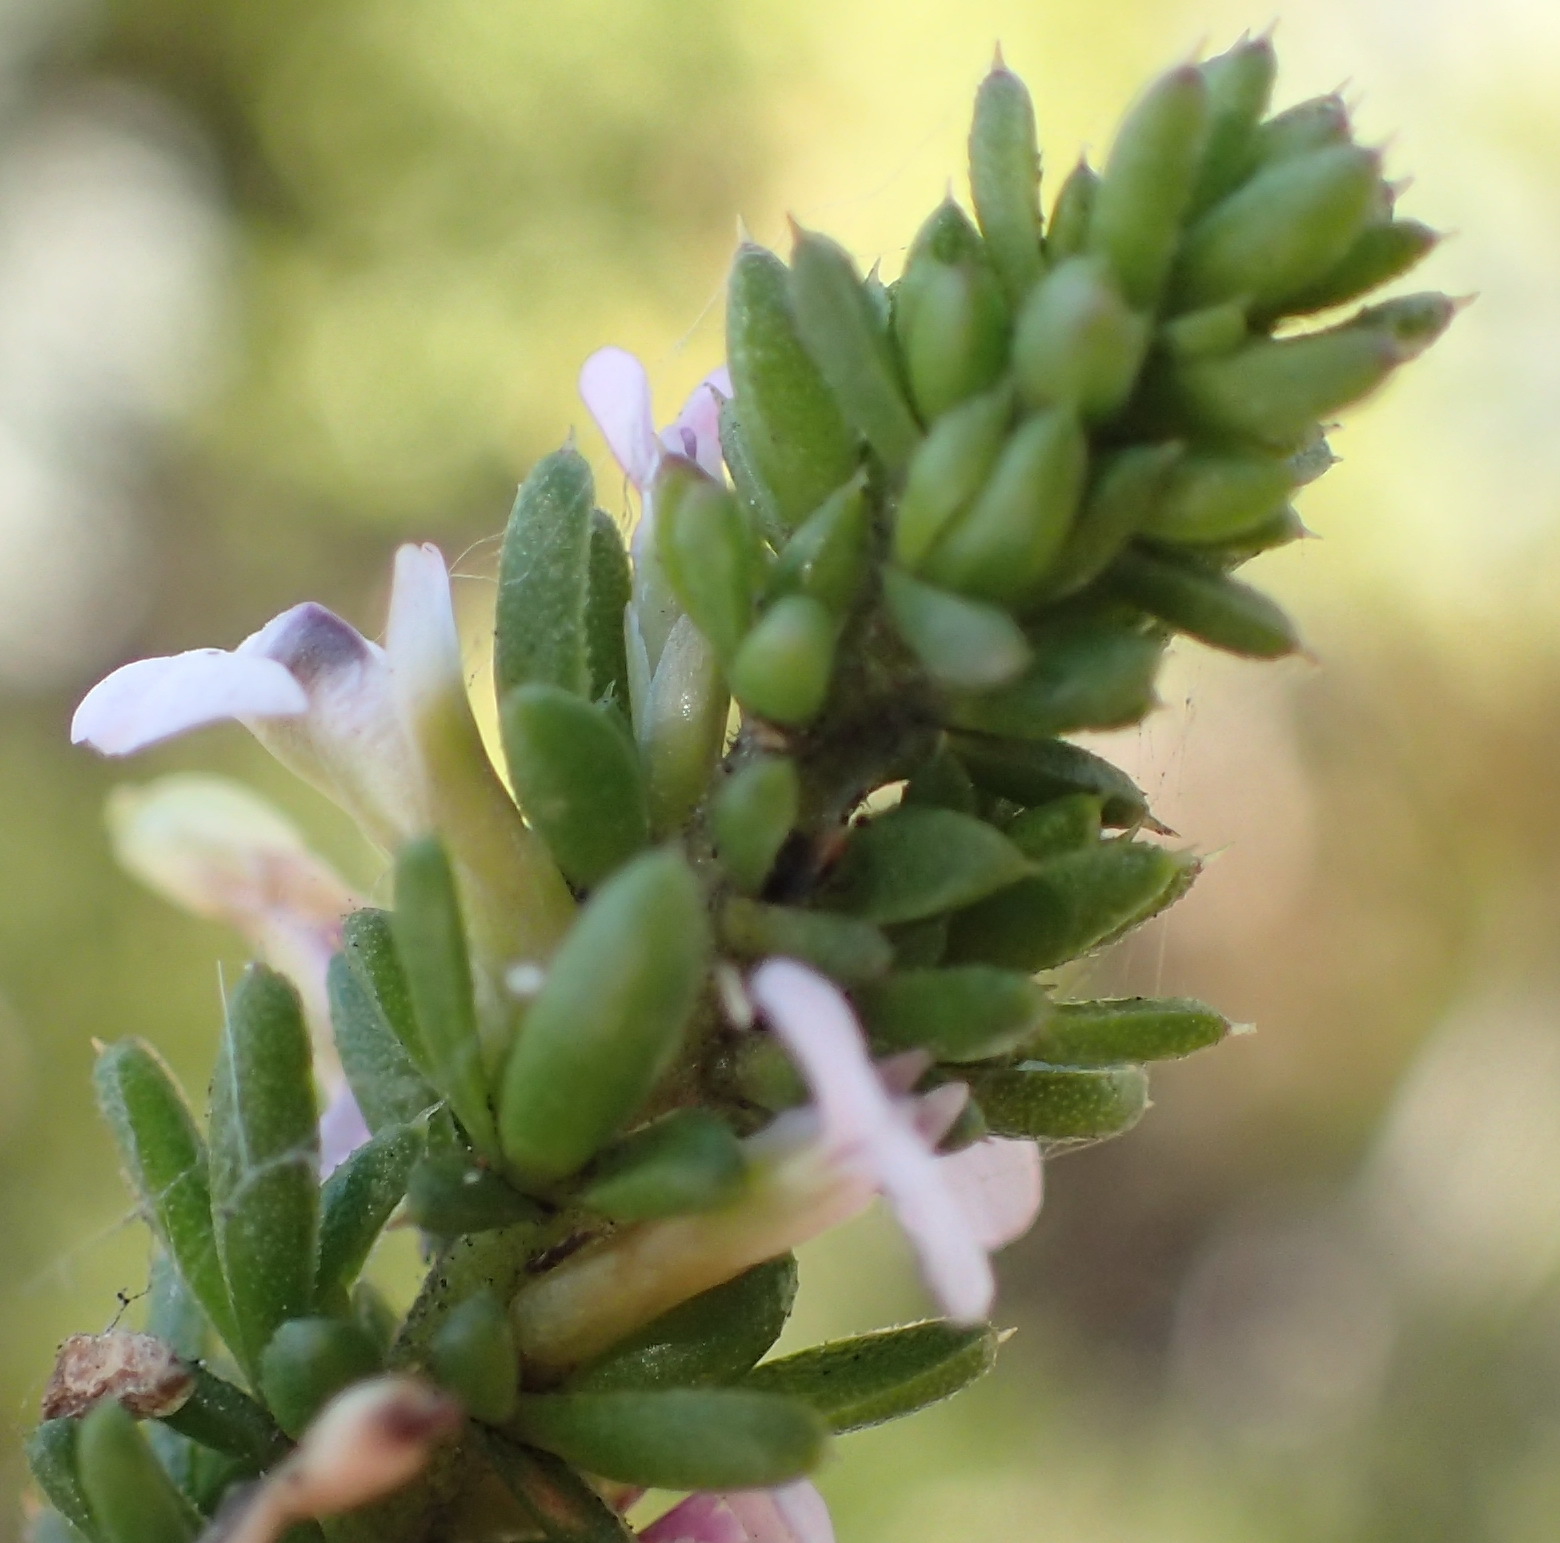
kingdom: Plantae
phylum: Tracheophyta
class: Magnoliopsida
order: Fabales
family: Polygalaceae
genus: Muraltia
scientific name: Muraltia satureioides
